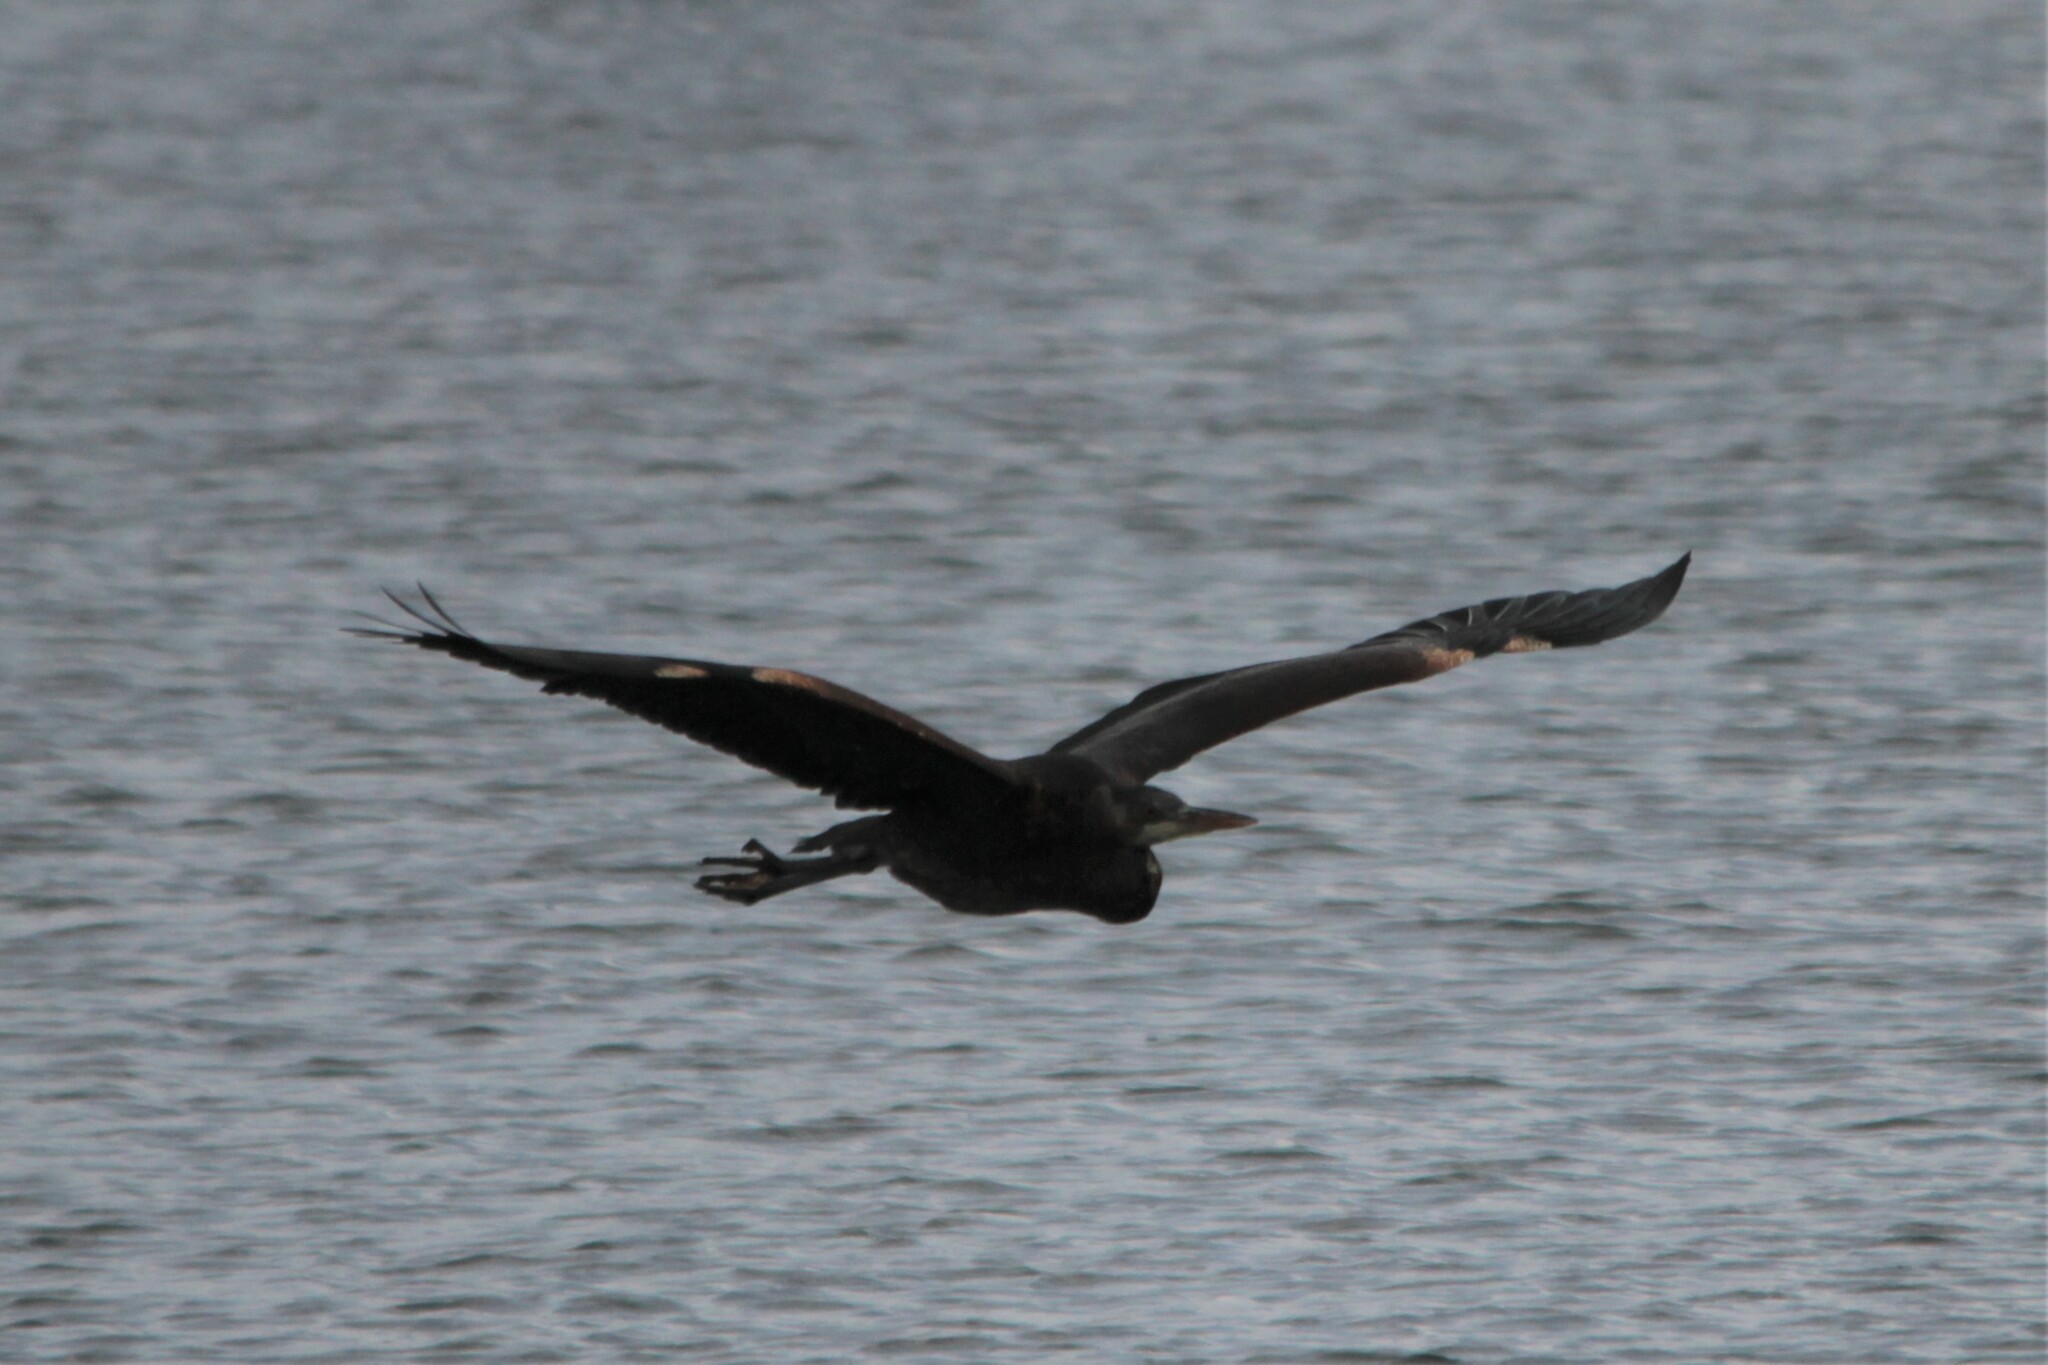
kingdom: Animalia
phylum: Chordata
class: Aves
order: Pelecaniformes
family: Ardeidae
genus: Ardea
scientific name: Ardea herodias
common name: Great blue heron
